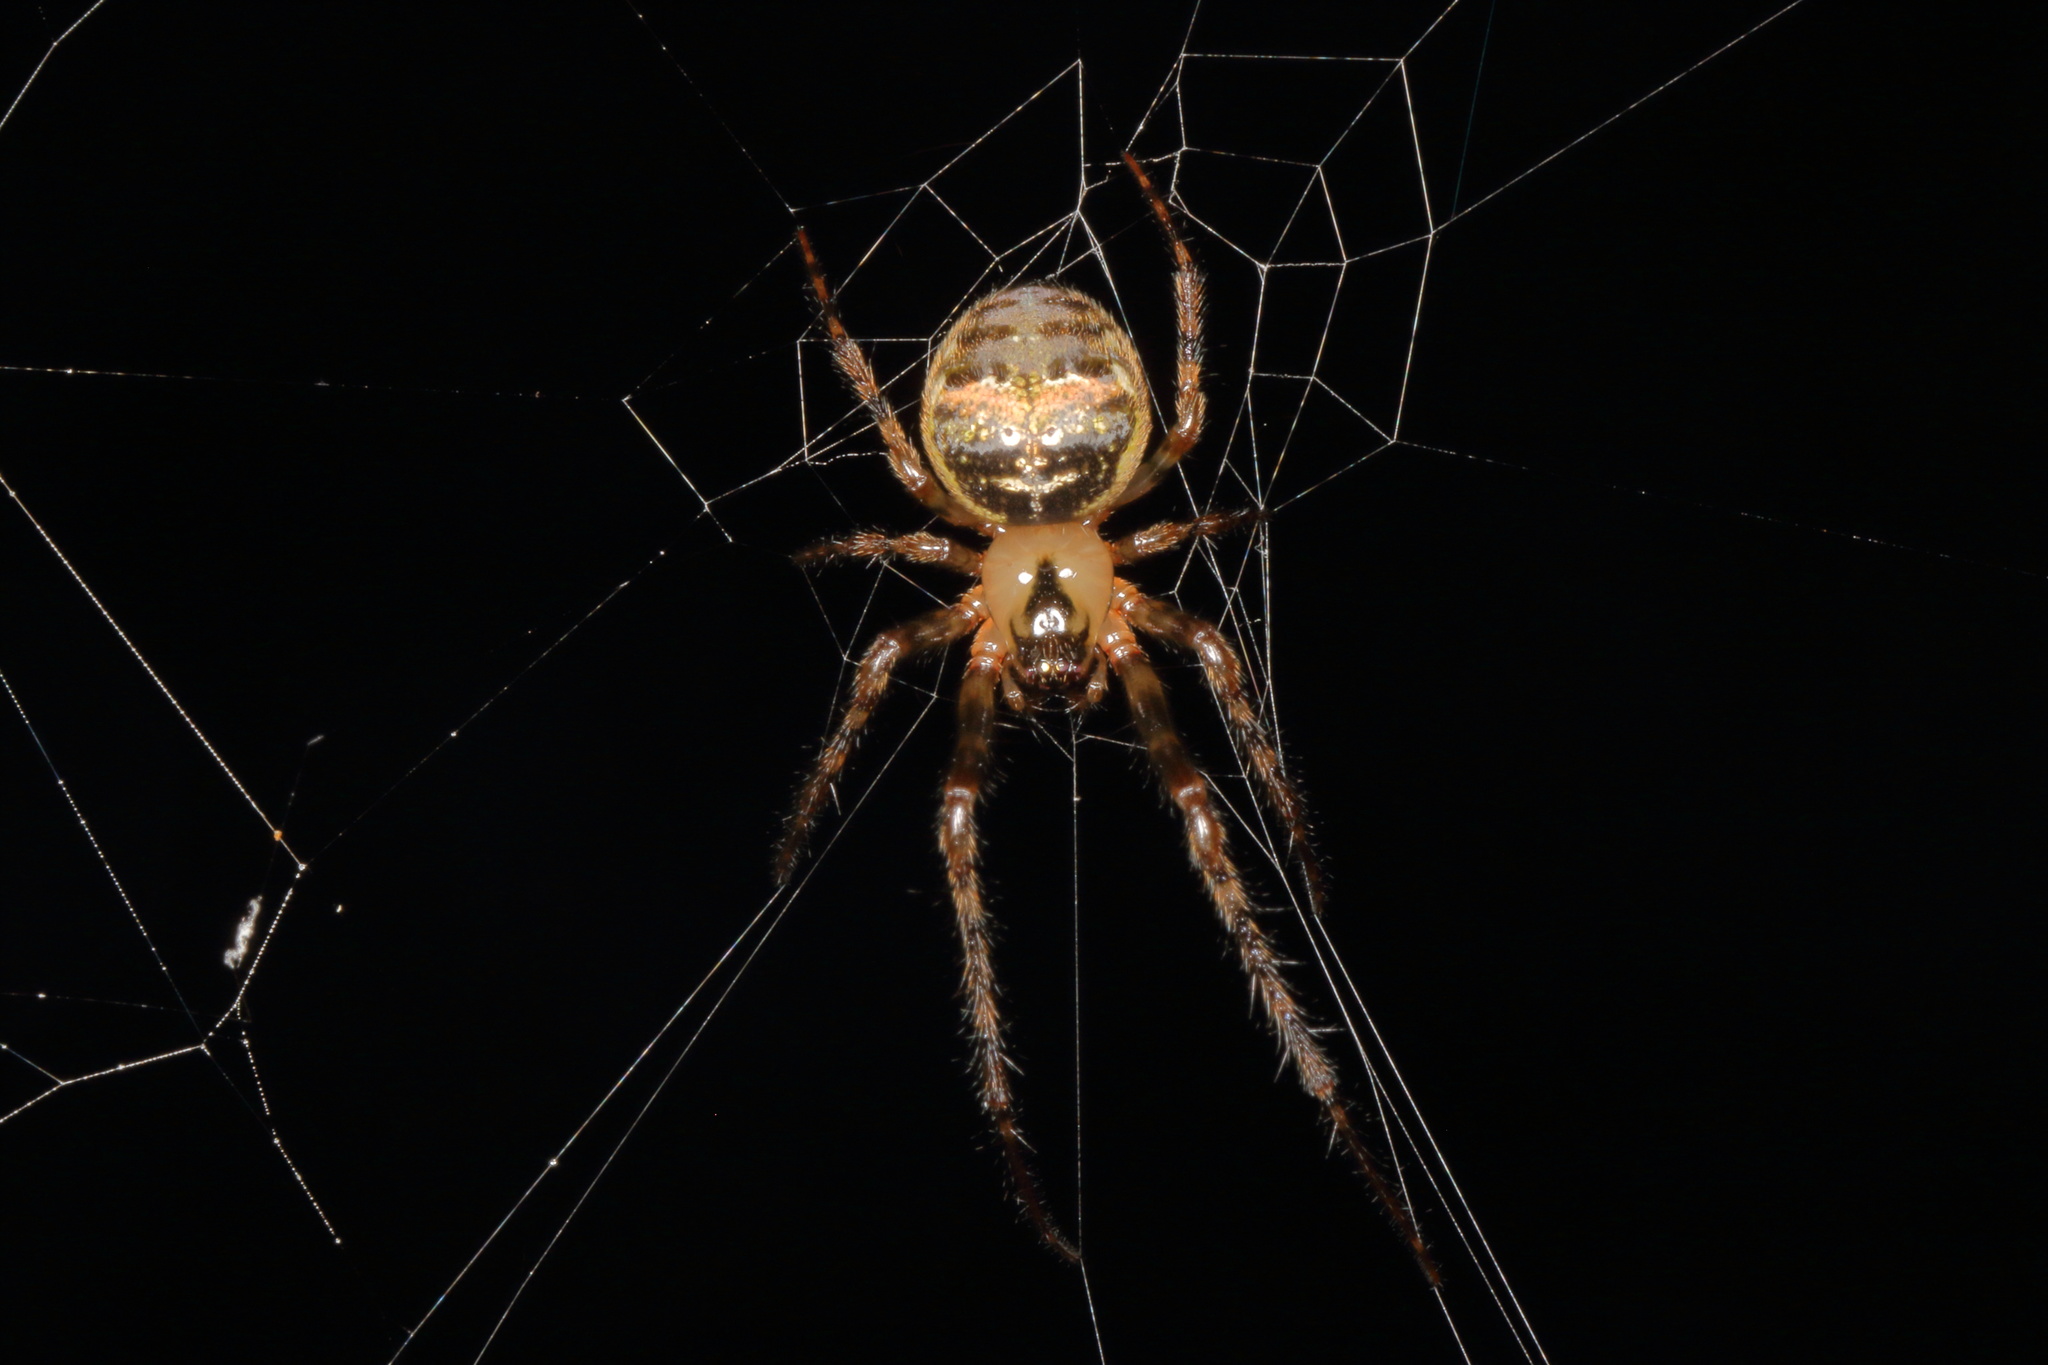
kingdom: Animalia
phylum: Arthropoda
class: Arachnida
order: Araneae
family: Tetragnathidae
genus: Taraire
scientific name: Taraire rufolineata
